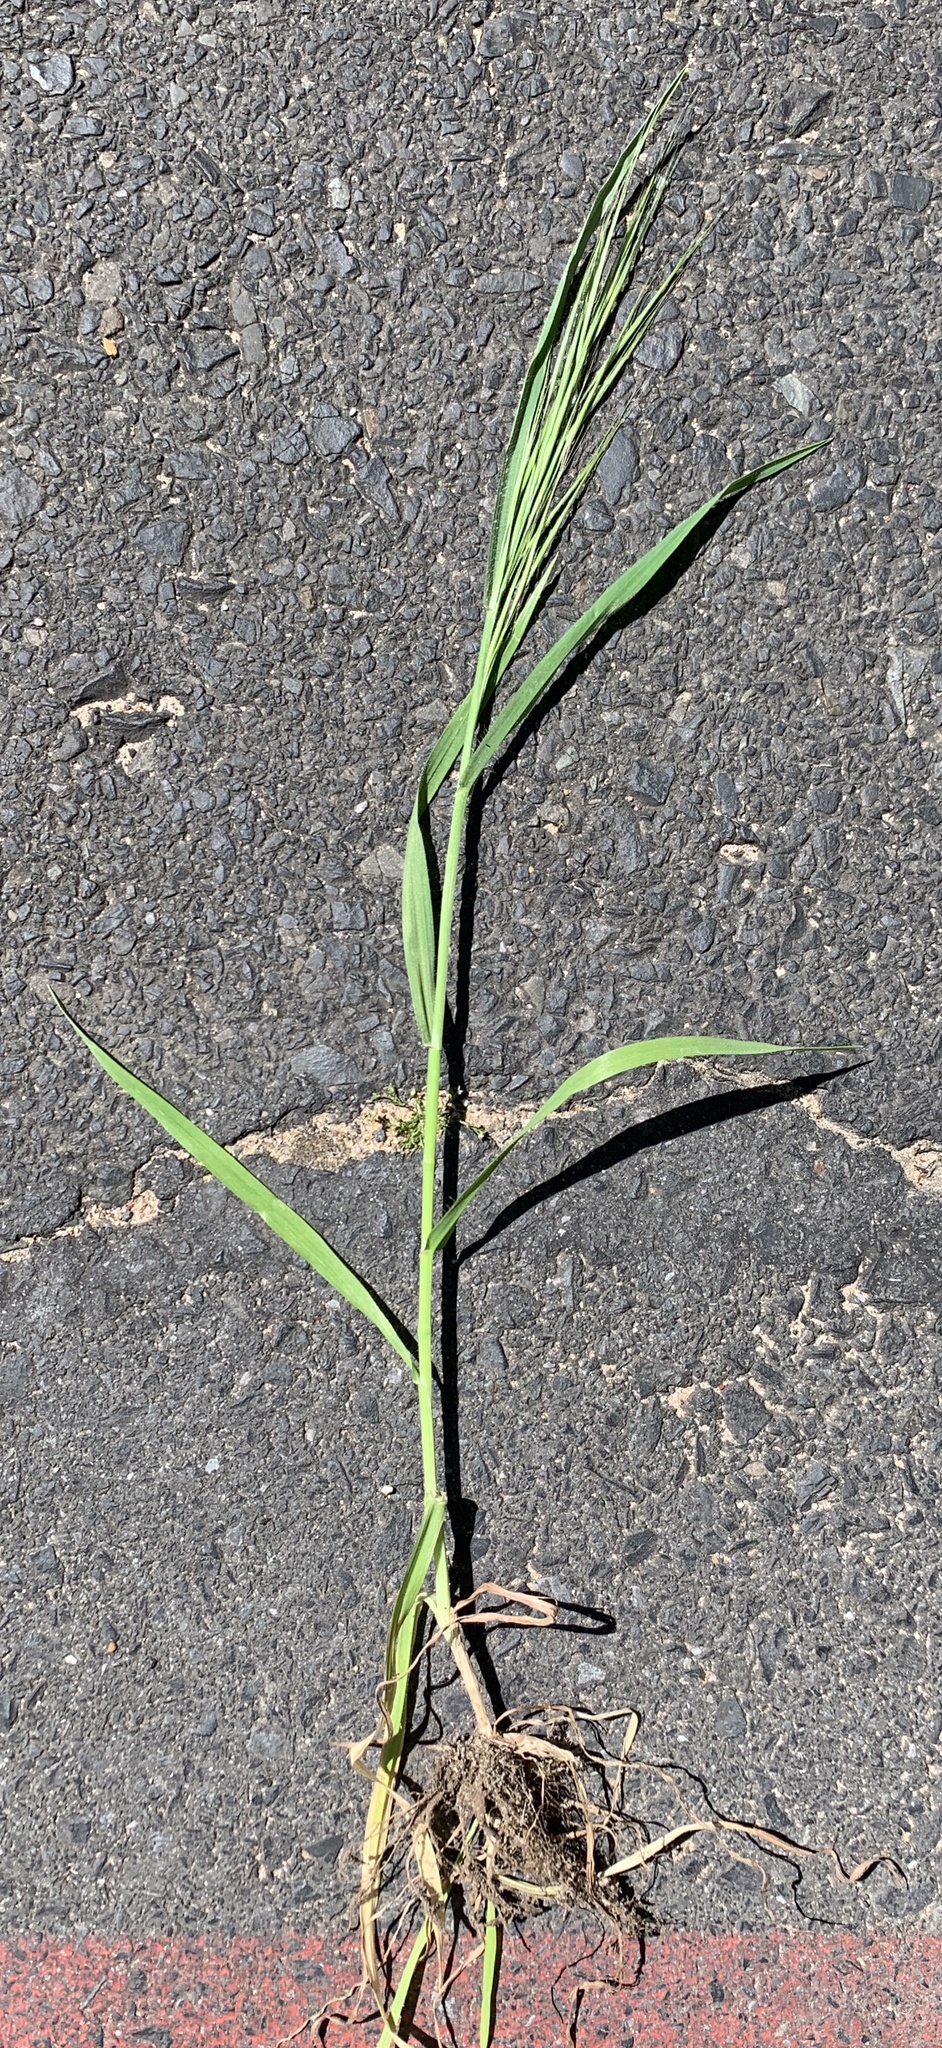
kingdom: Plantae
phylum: Tracheophyta
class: Liliopsida
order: Poales
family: Poaceae
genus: Bromus
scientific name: Bromus diandrus
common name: Ripgut brome
